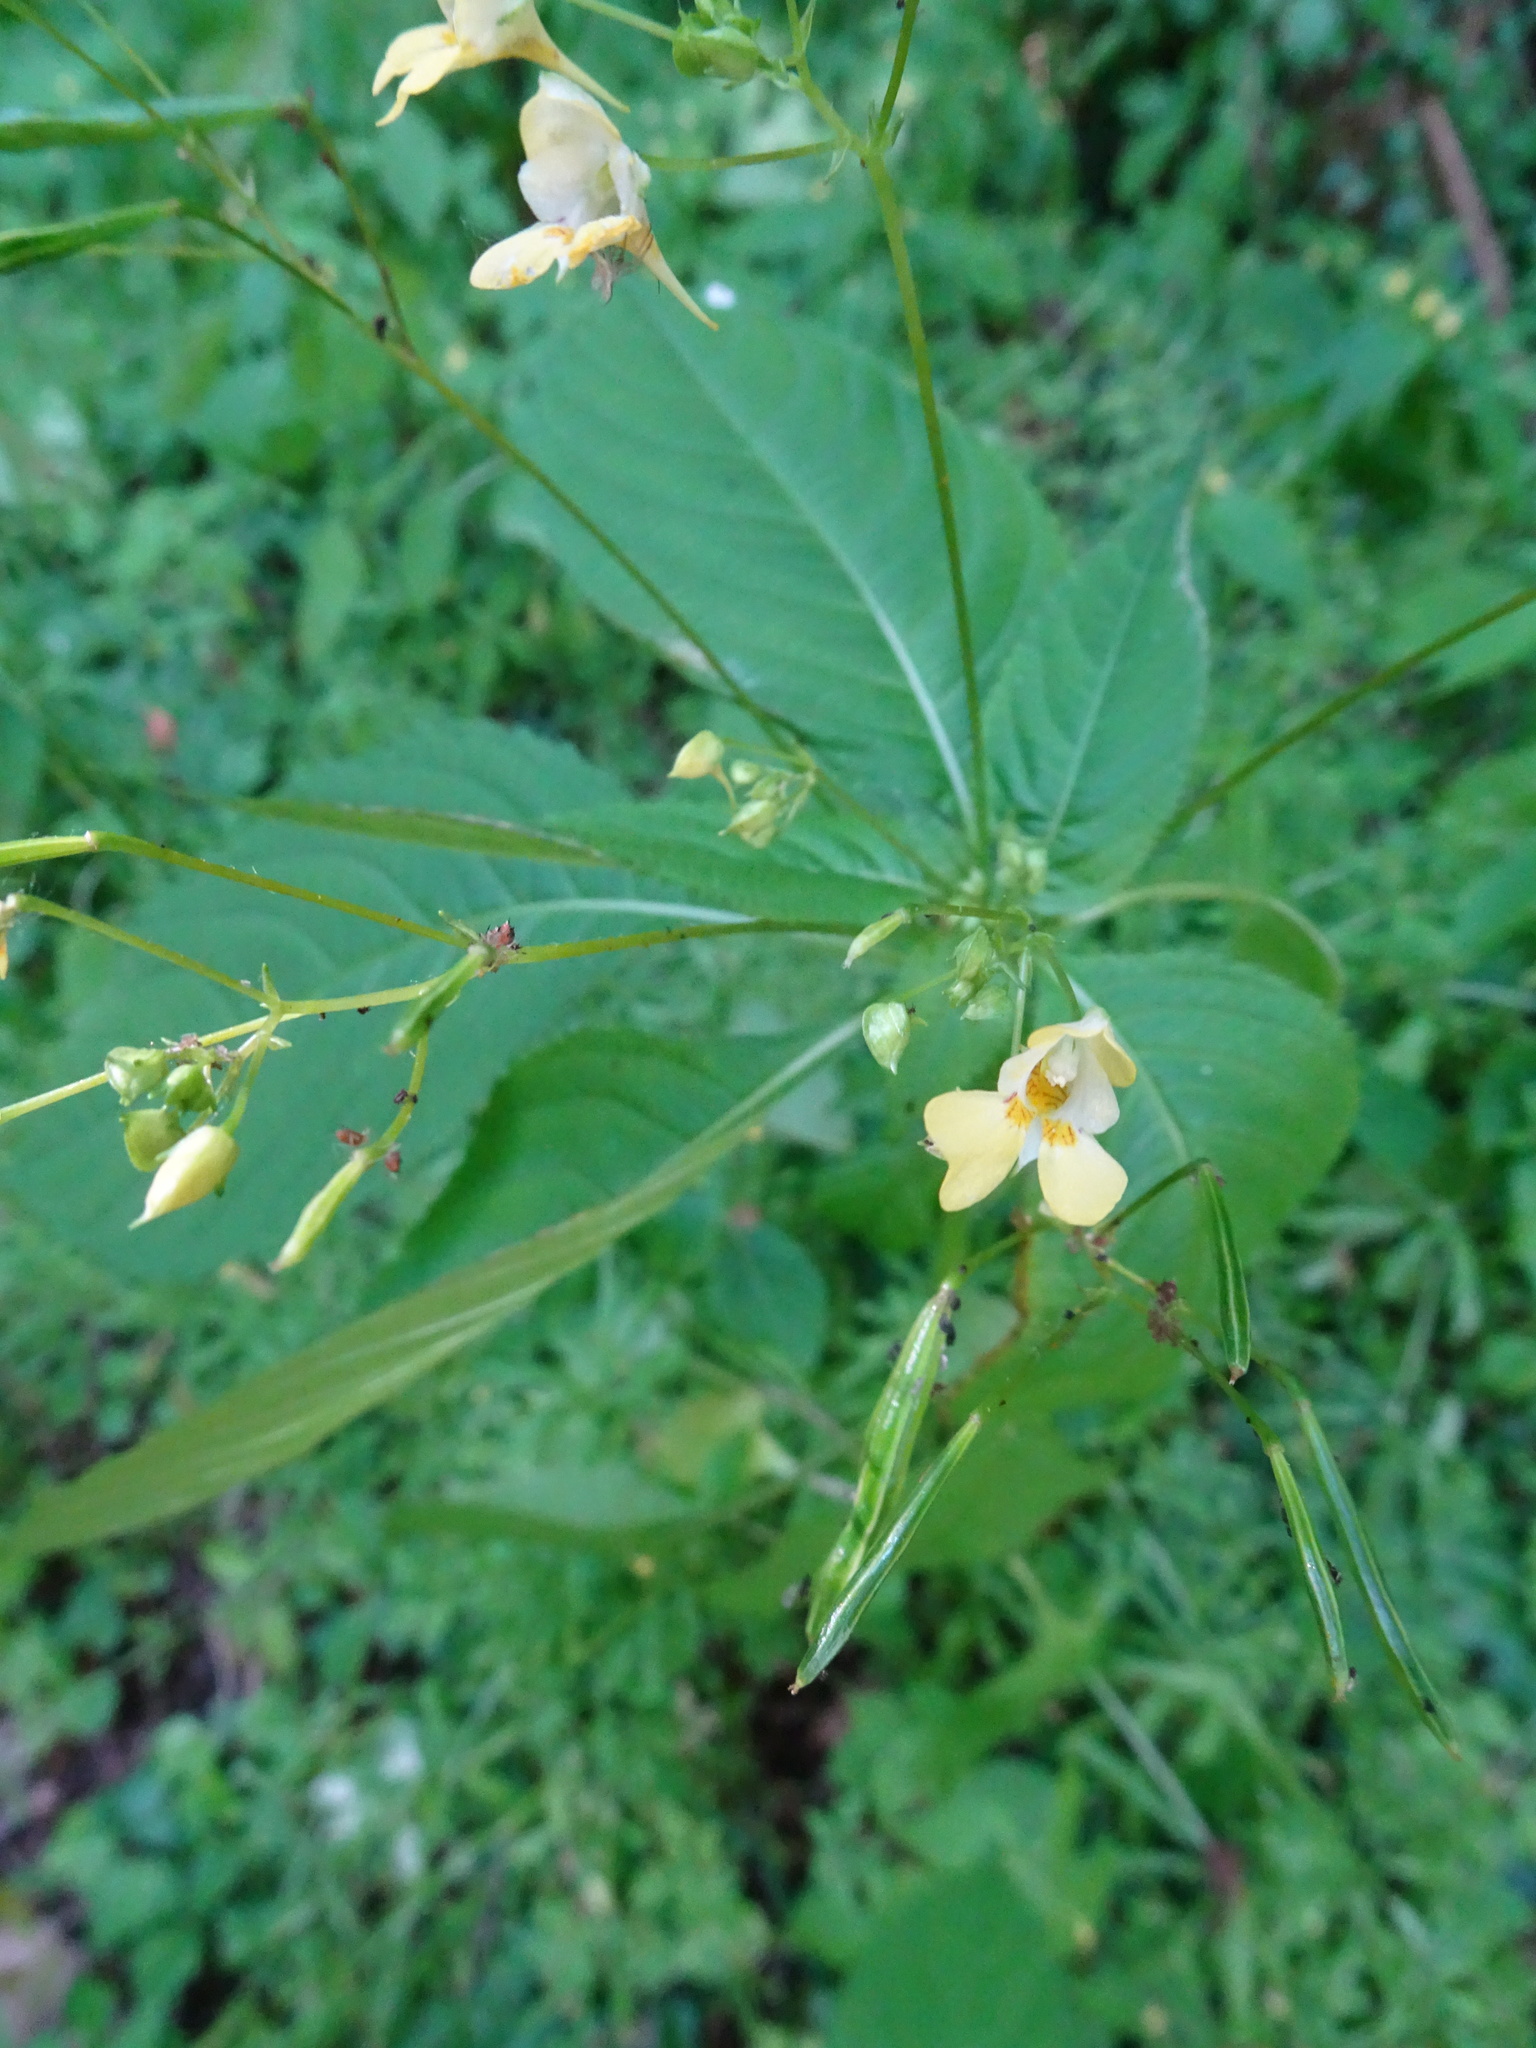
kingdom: Plantae
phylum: Tracheophyta
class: Magnoliopsida
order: Ericales
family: Balsaminaceae
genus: Impatiens
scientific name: Impatiens parviflora
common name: Small balsam
